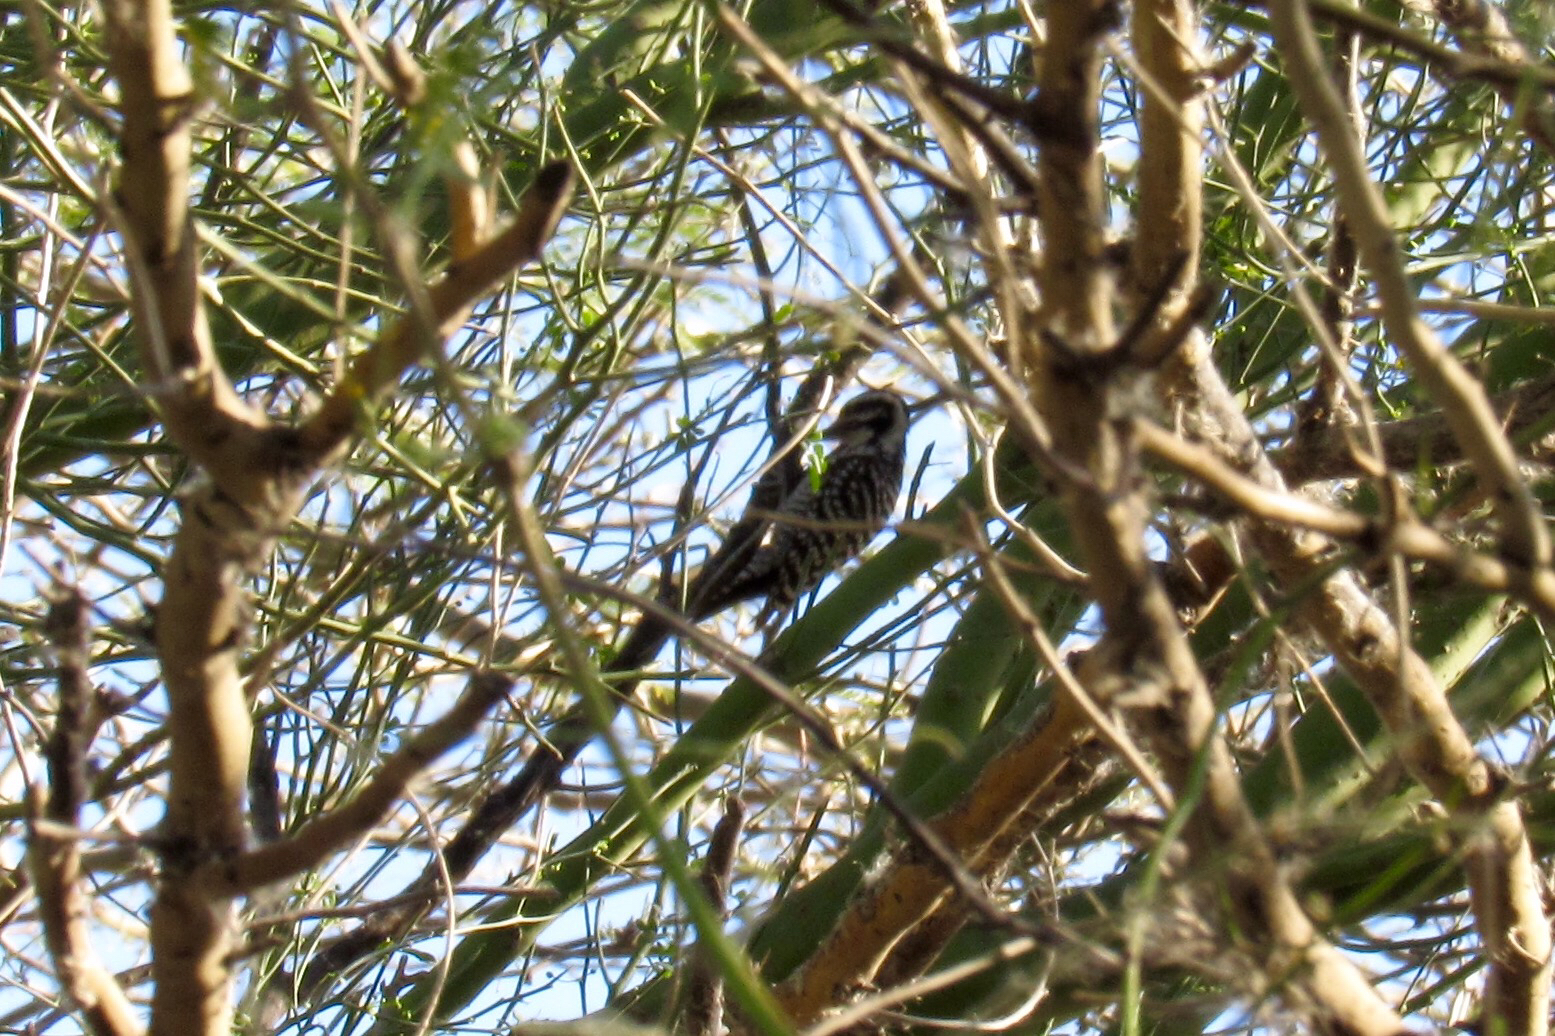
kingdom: Animalia
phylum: Chordata
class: Aves
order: Piciformes
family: Picidae
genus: Dryobates
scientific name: Dryobates scalaris
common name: Ladder-backed woodpecker
